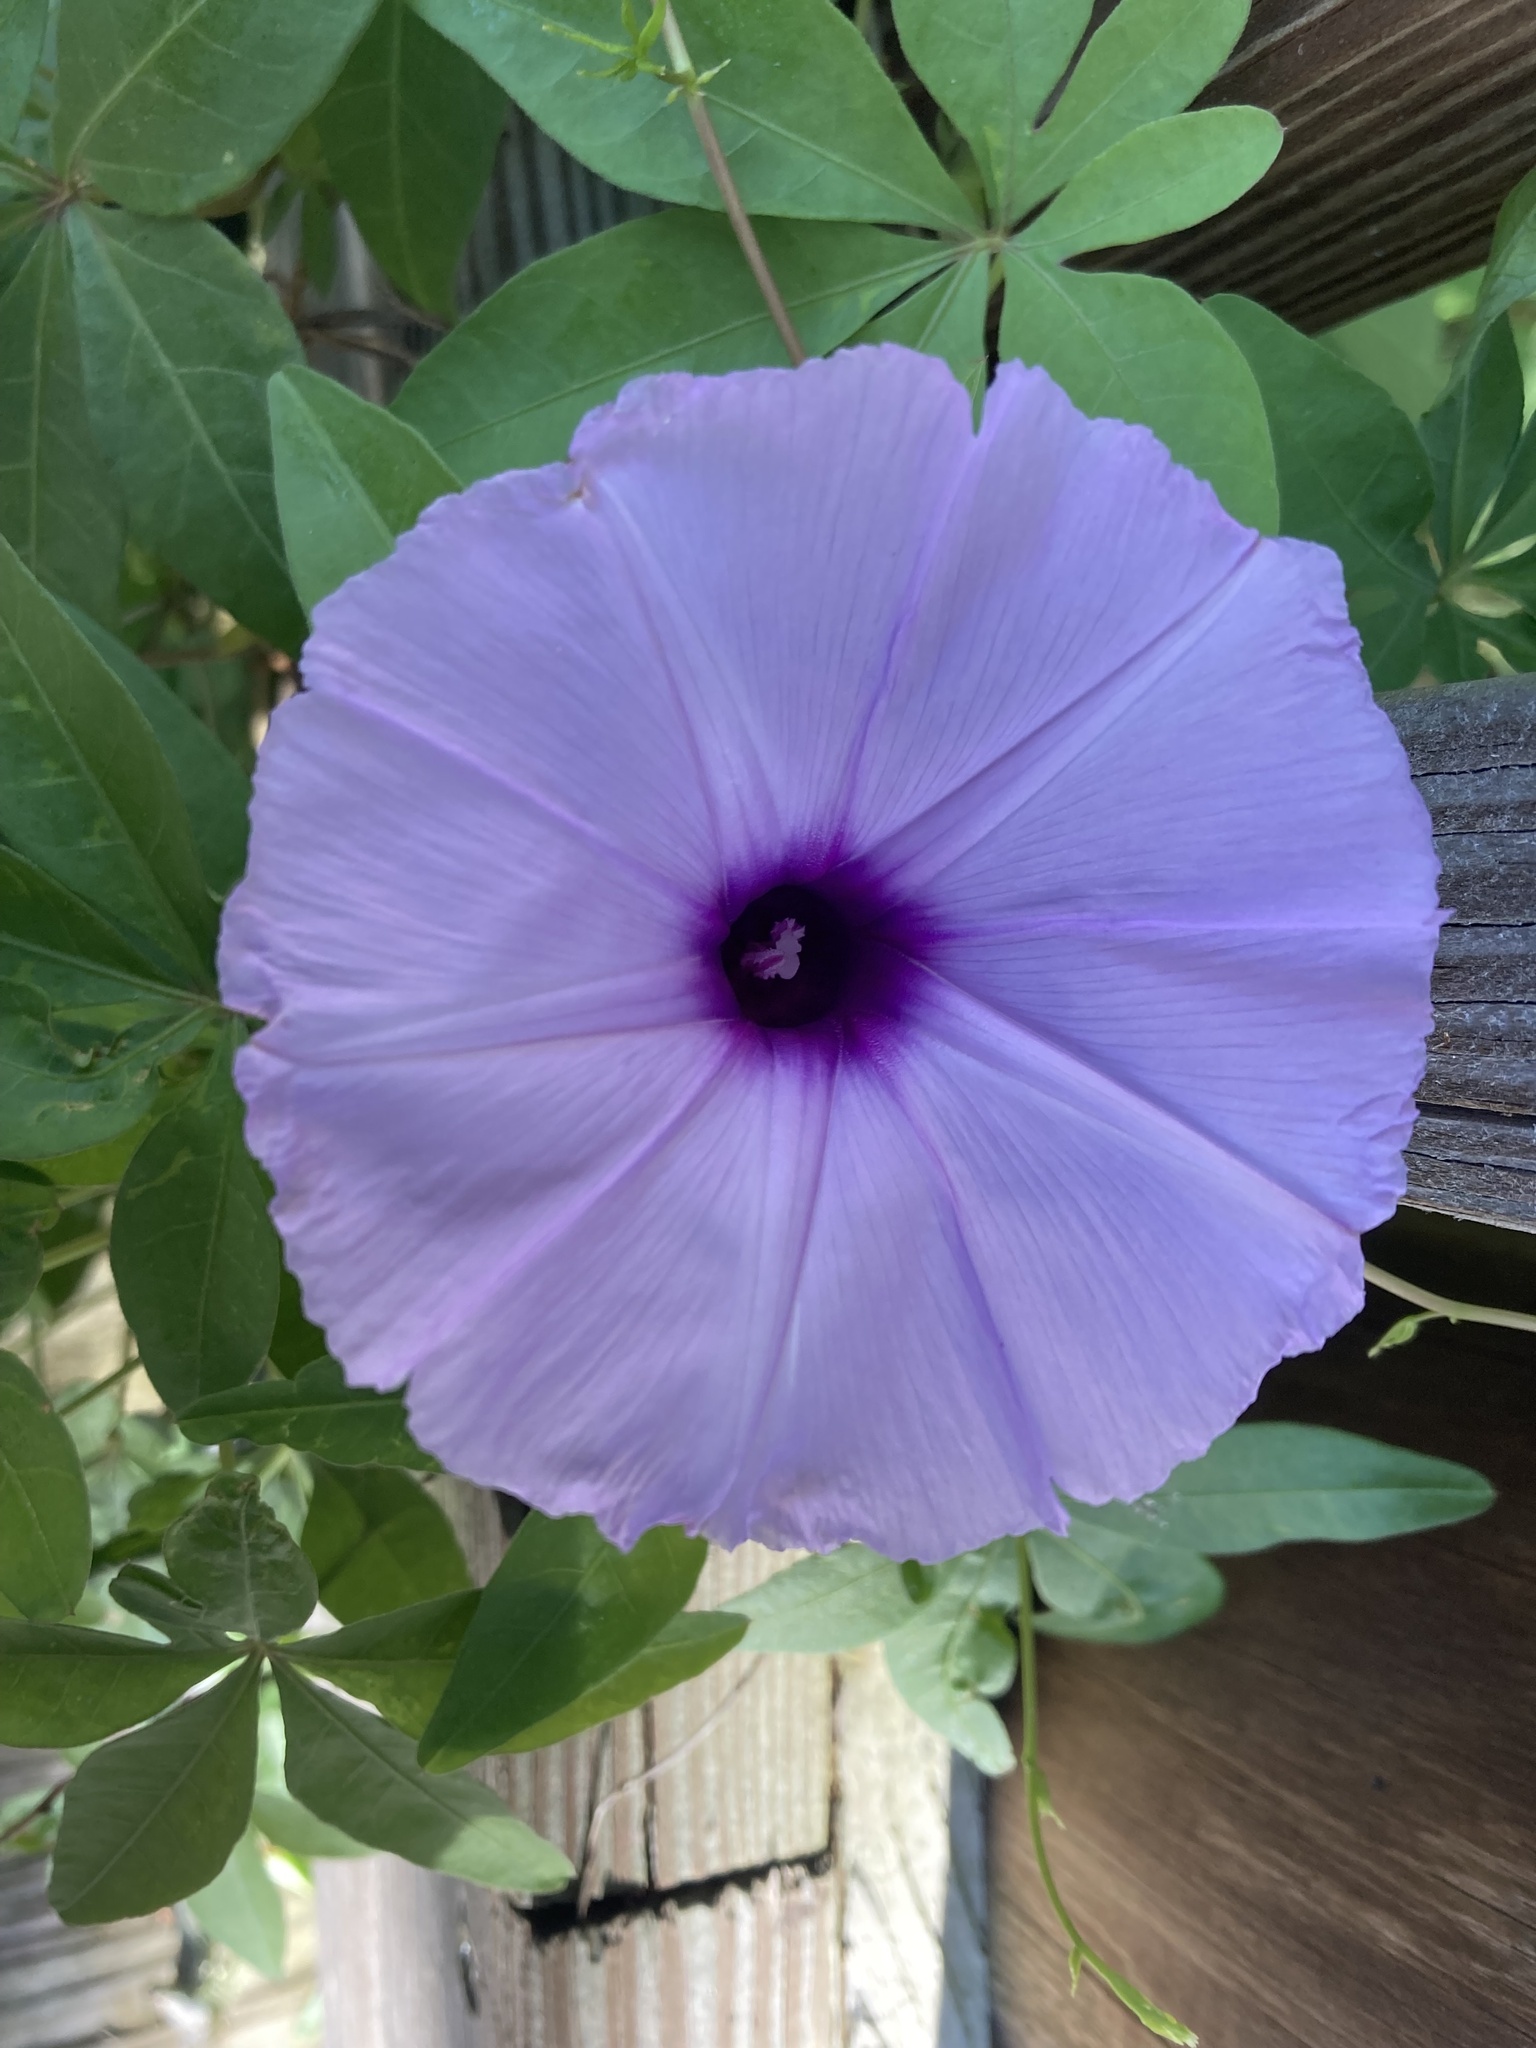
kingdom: Plantae
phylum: Tracheophyta
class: Magnoliopsida
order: Solanales
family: Convolvulaceae
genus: Ipomoea
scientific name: Ipomoea cairica
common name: Mile a minute vine
